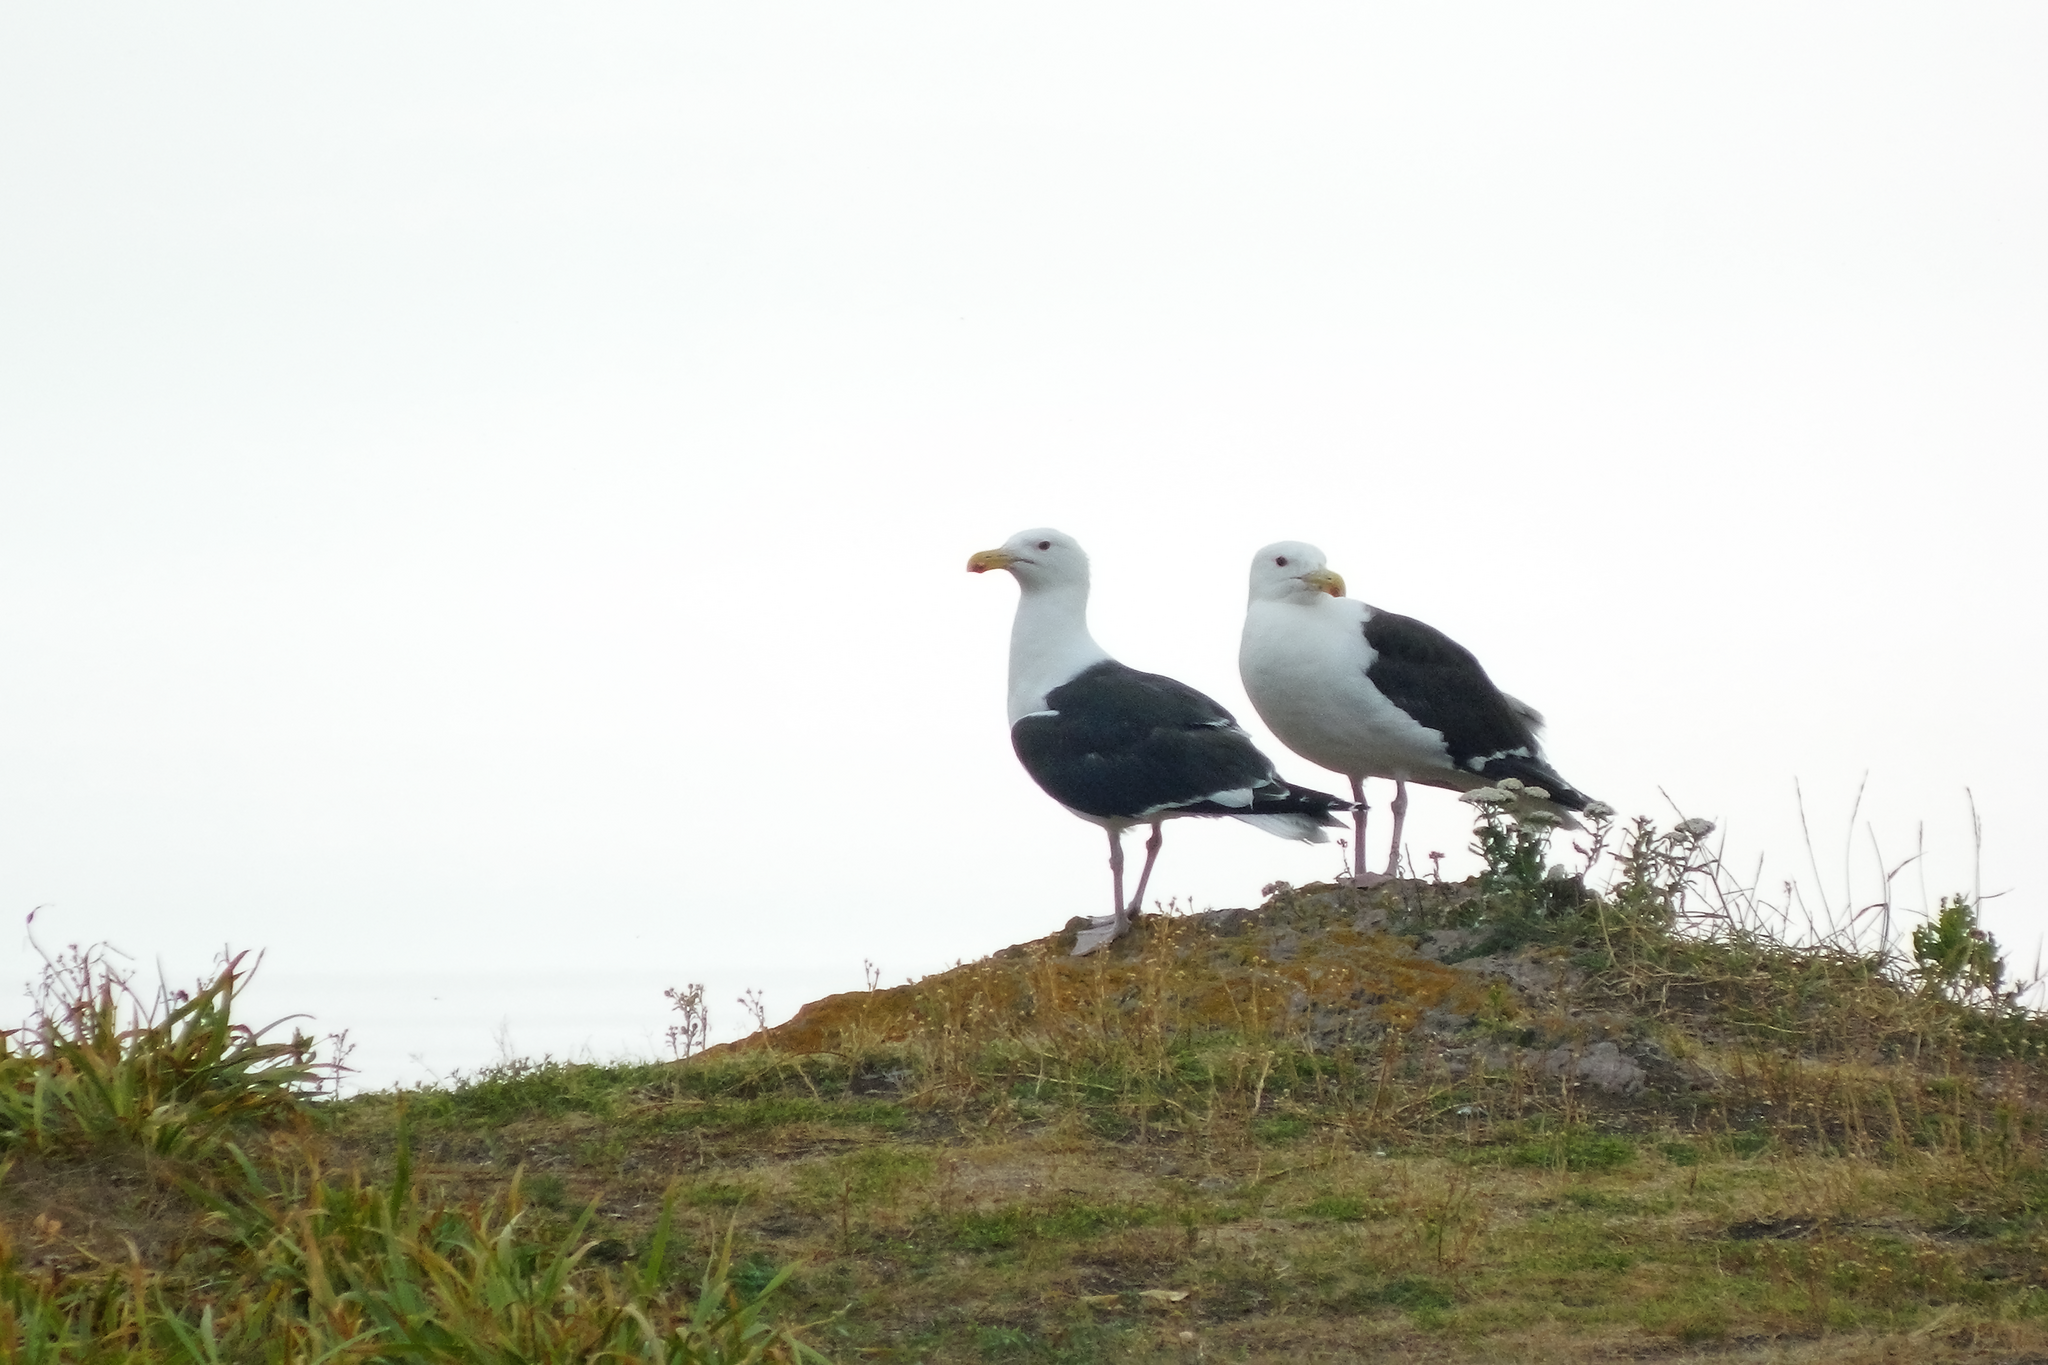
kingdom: Animalia
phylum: Chordata
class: Aves
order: Charadriiformes
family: Laridae
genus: Larus
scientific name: Larus marinus
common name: Great black-backed gull
